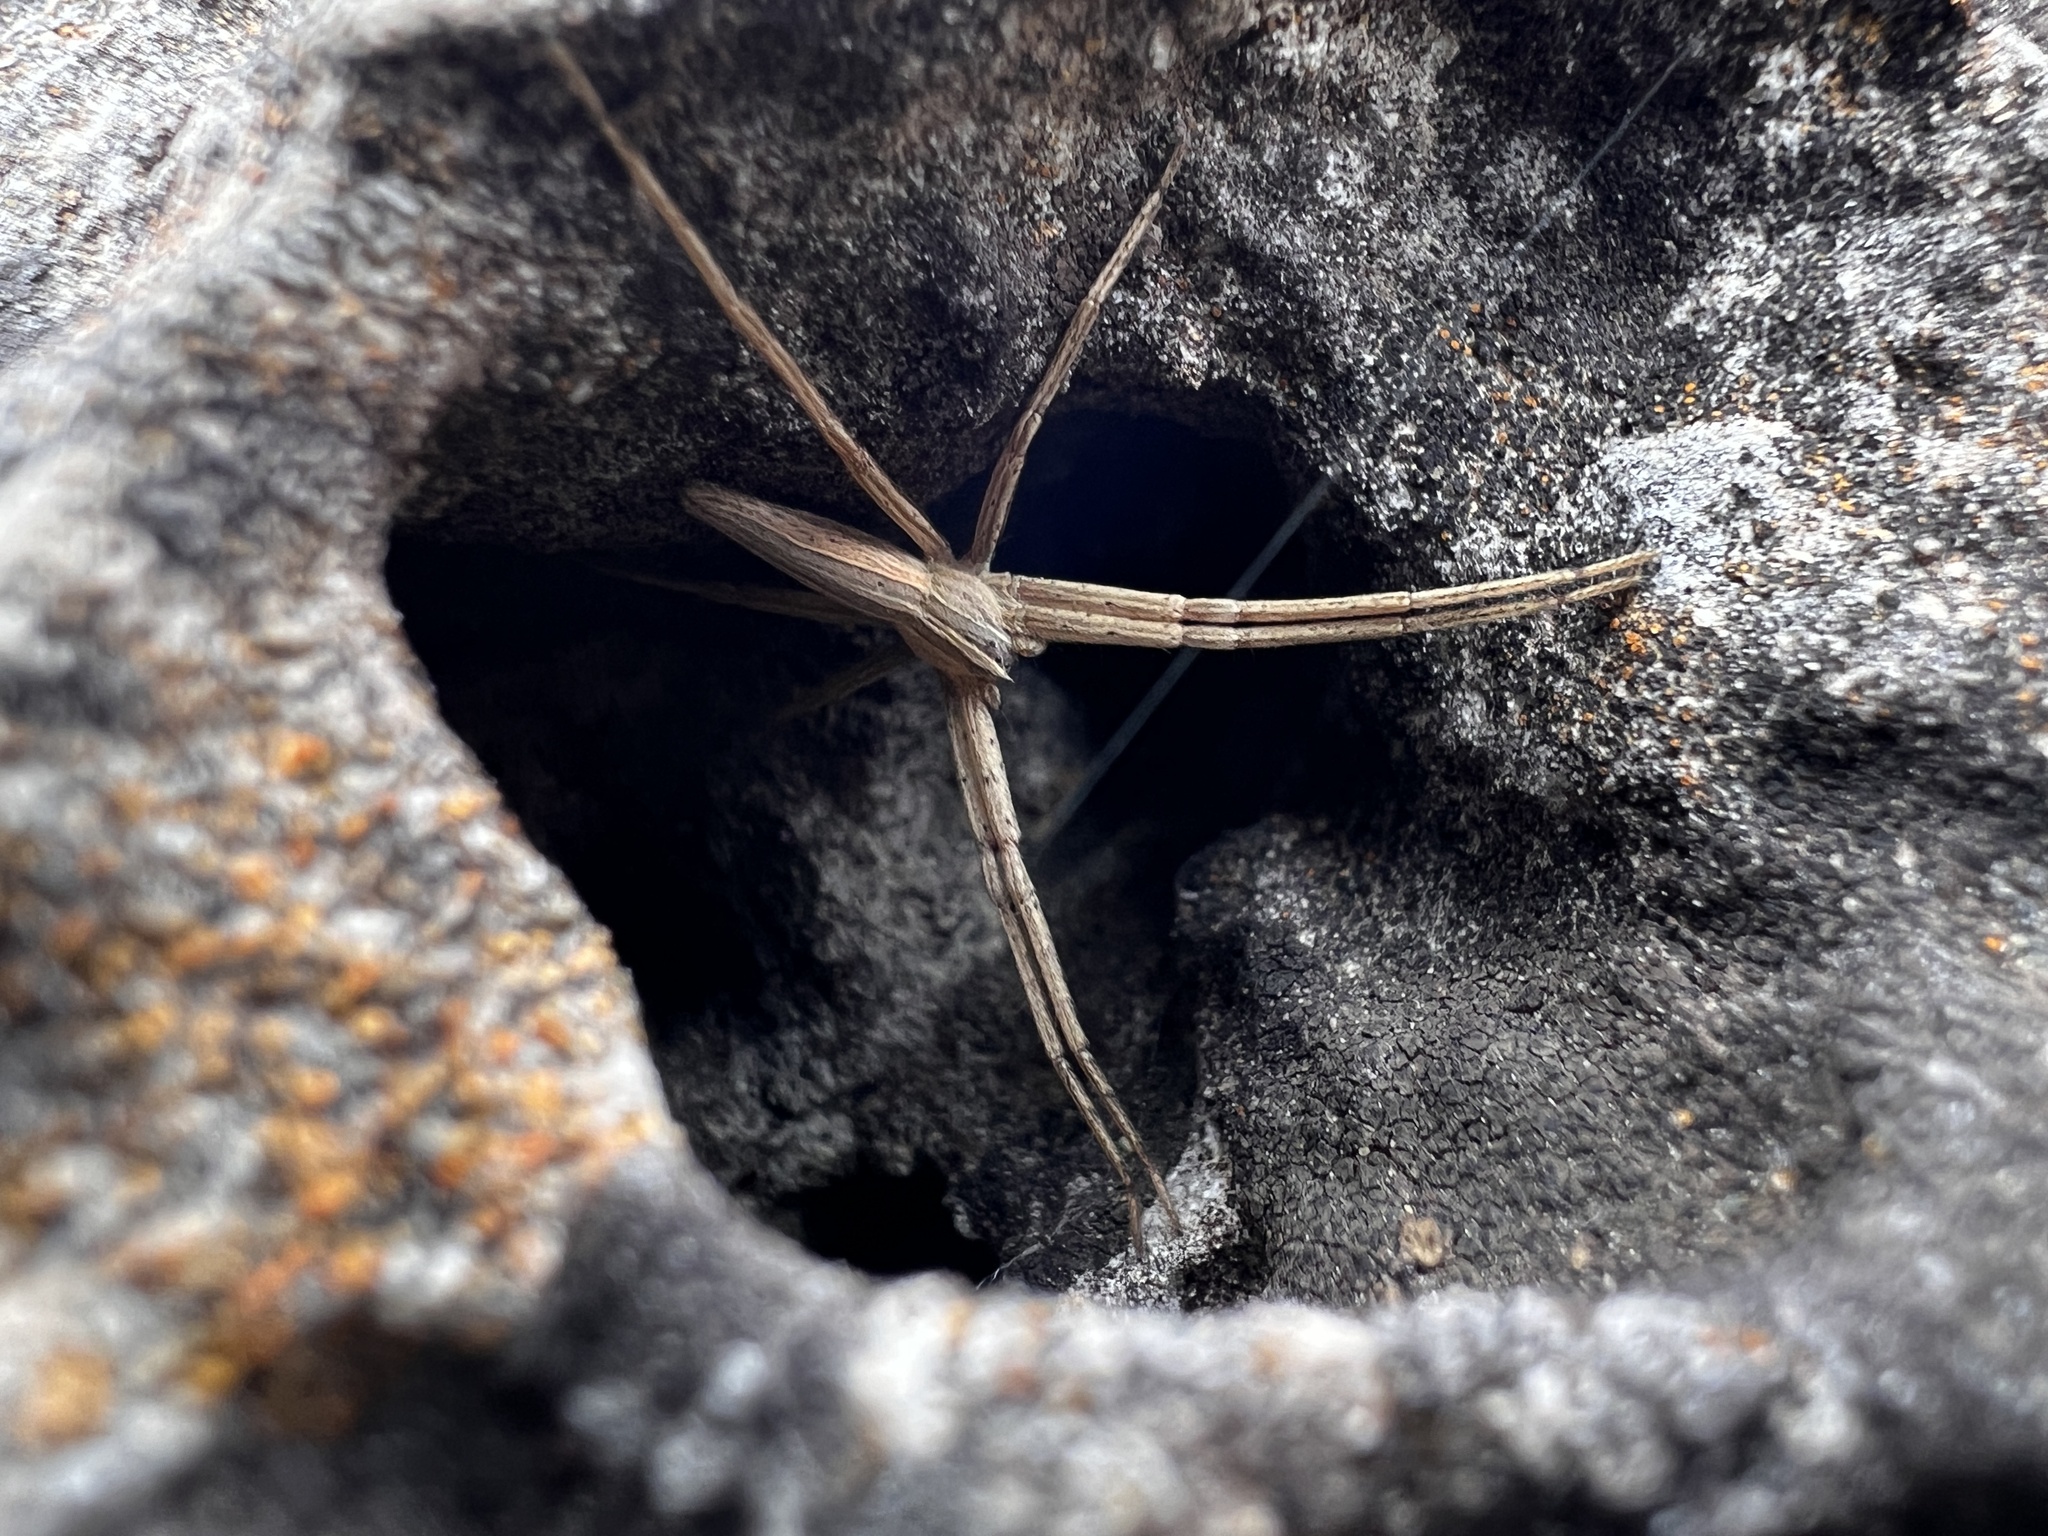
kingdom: Animalia
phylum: Arthropoda
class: Arachnida
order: Araneae
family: Pisauridae
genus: Pisaurina
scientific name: Pisaurina dubia
